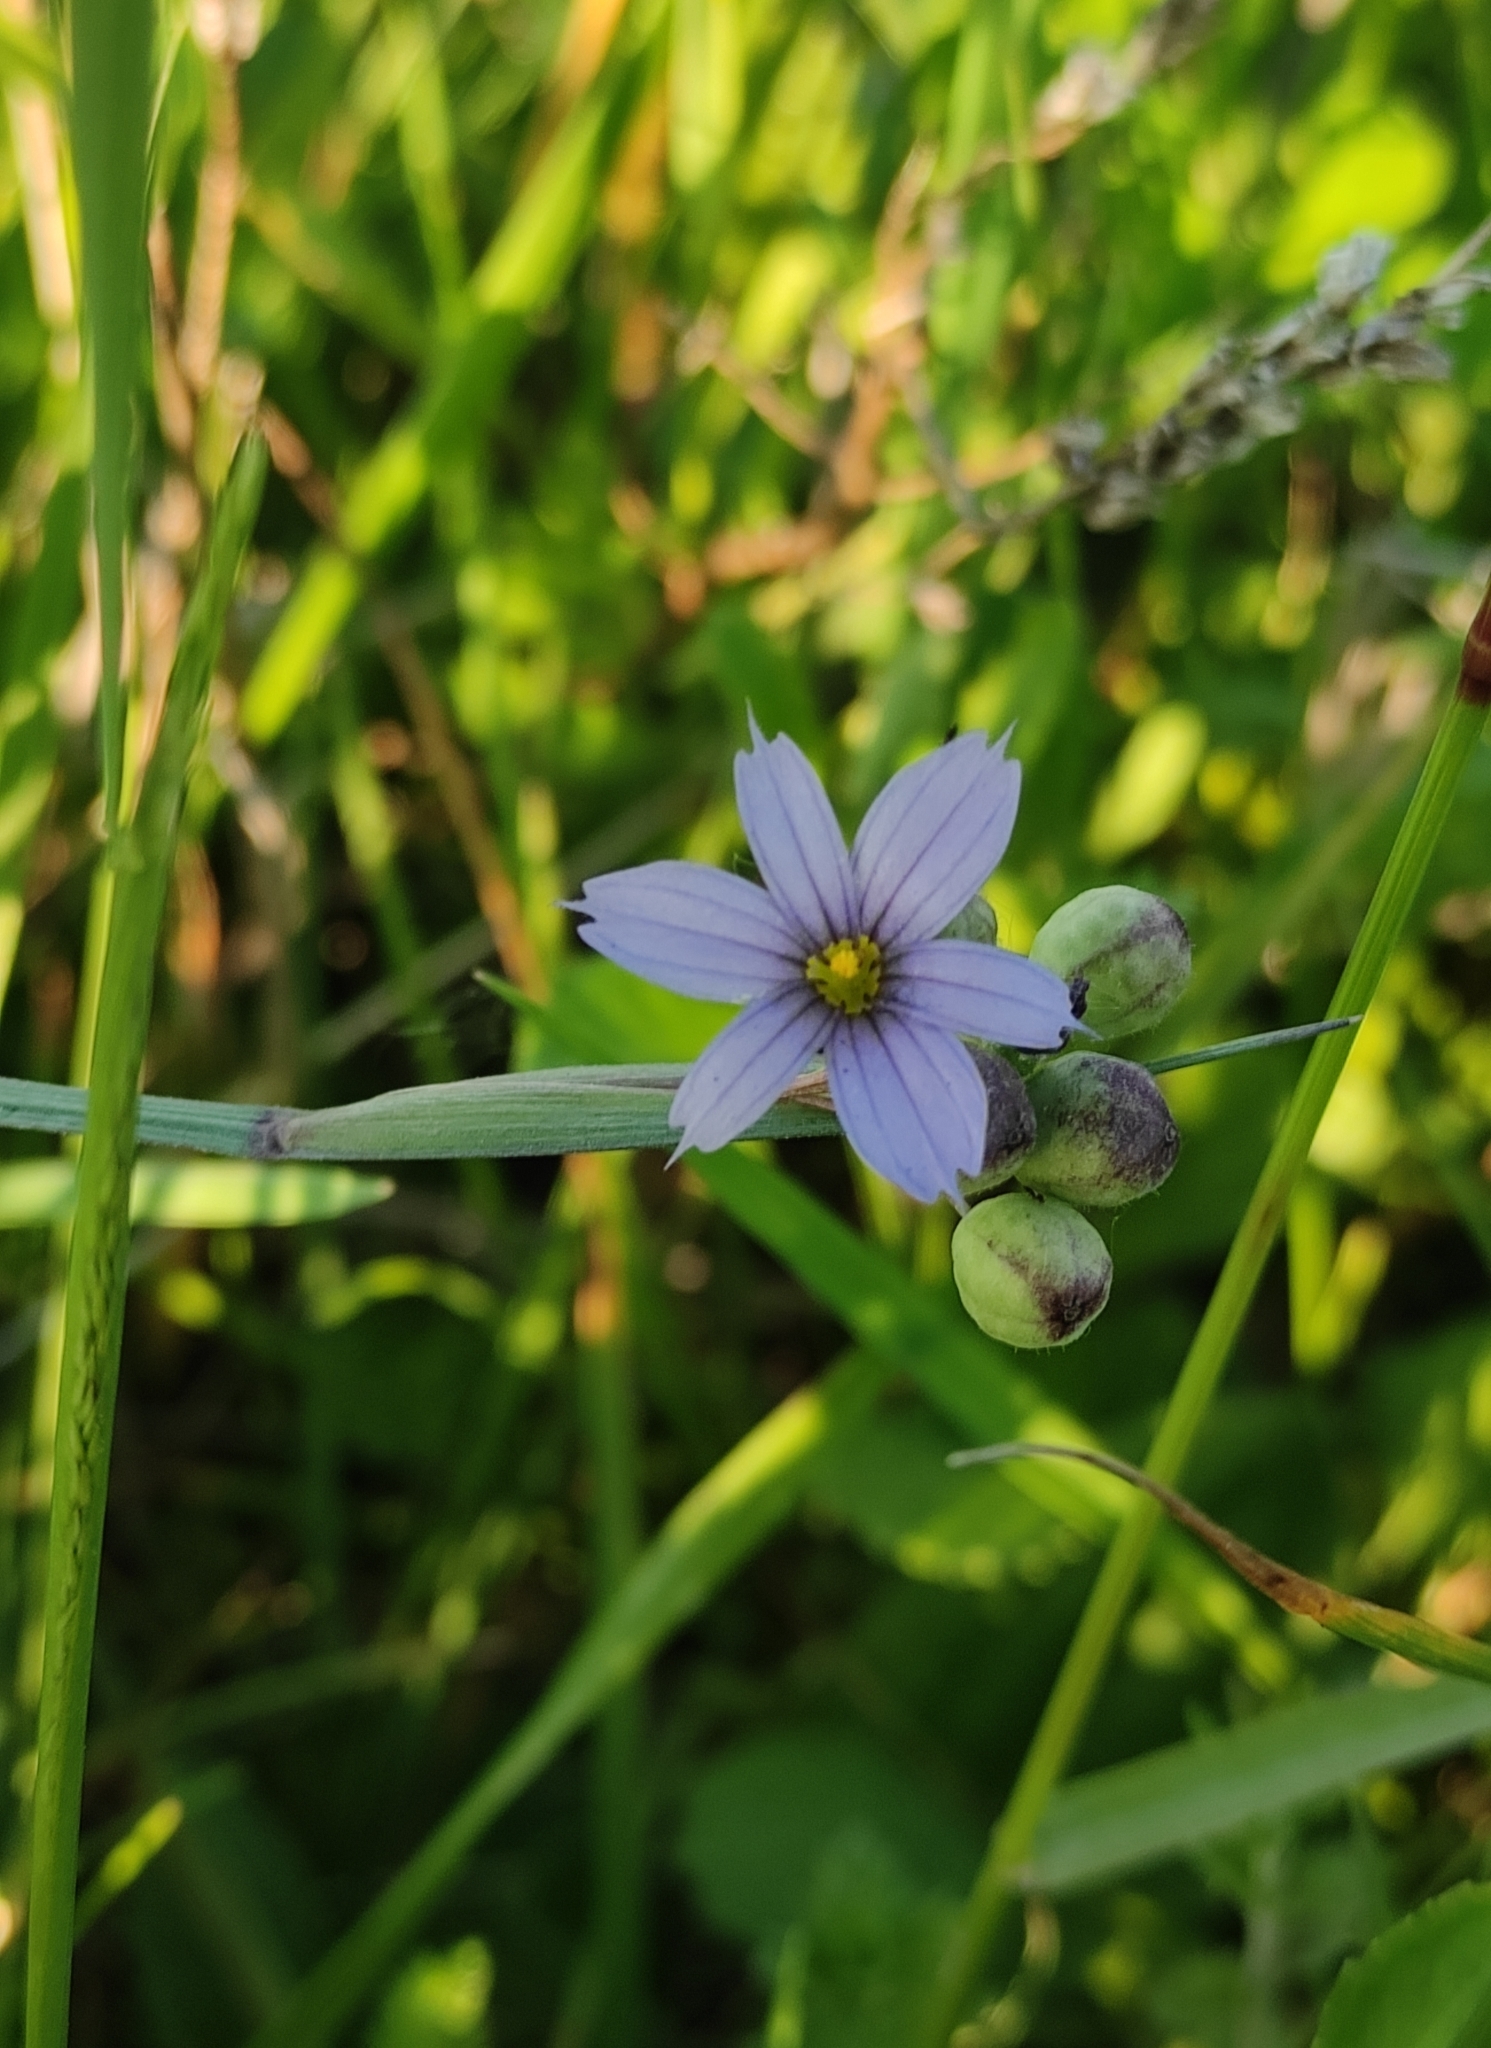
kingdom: Plantae
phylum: Tracheophyta
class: Liliopsida
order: Asparagales
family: Iridaceae
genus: Sisyrinchium
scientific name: Sisyrinchium montanum
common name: American blue-eyed-grass
